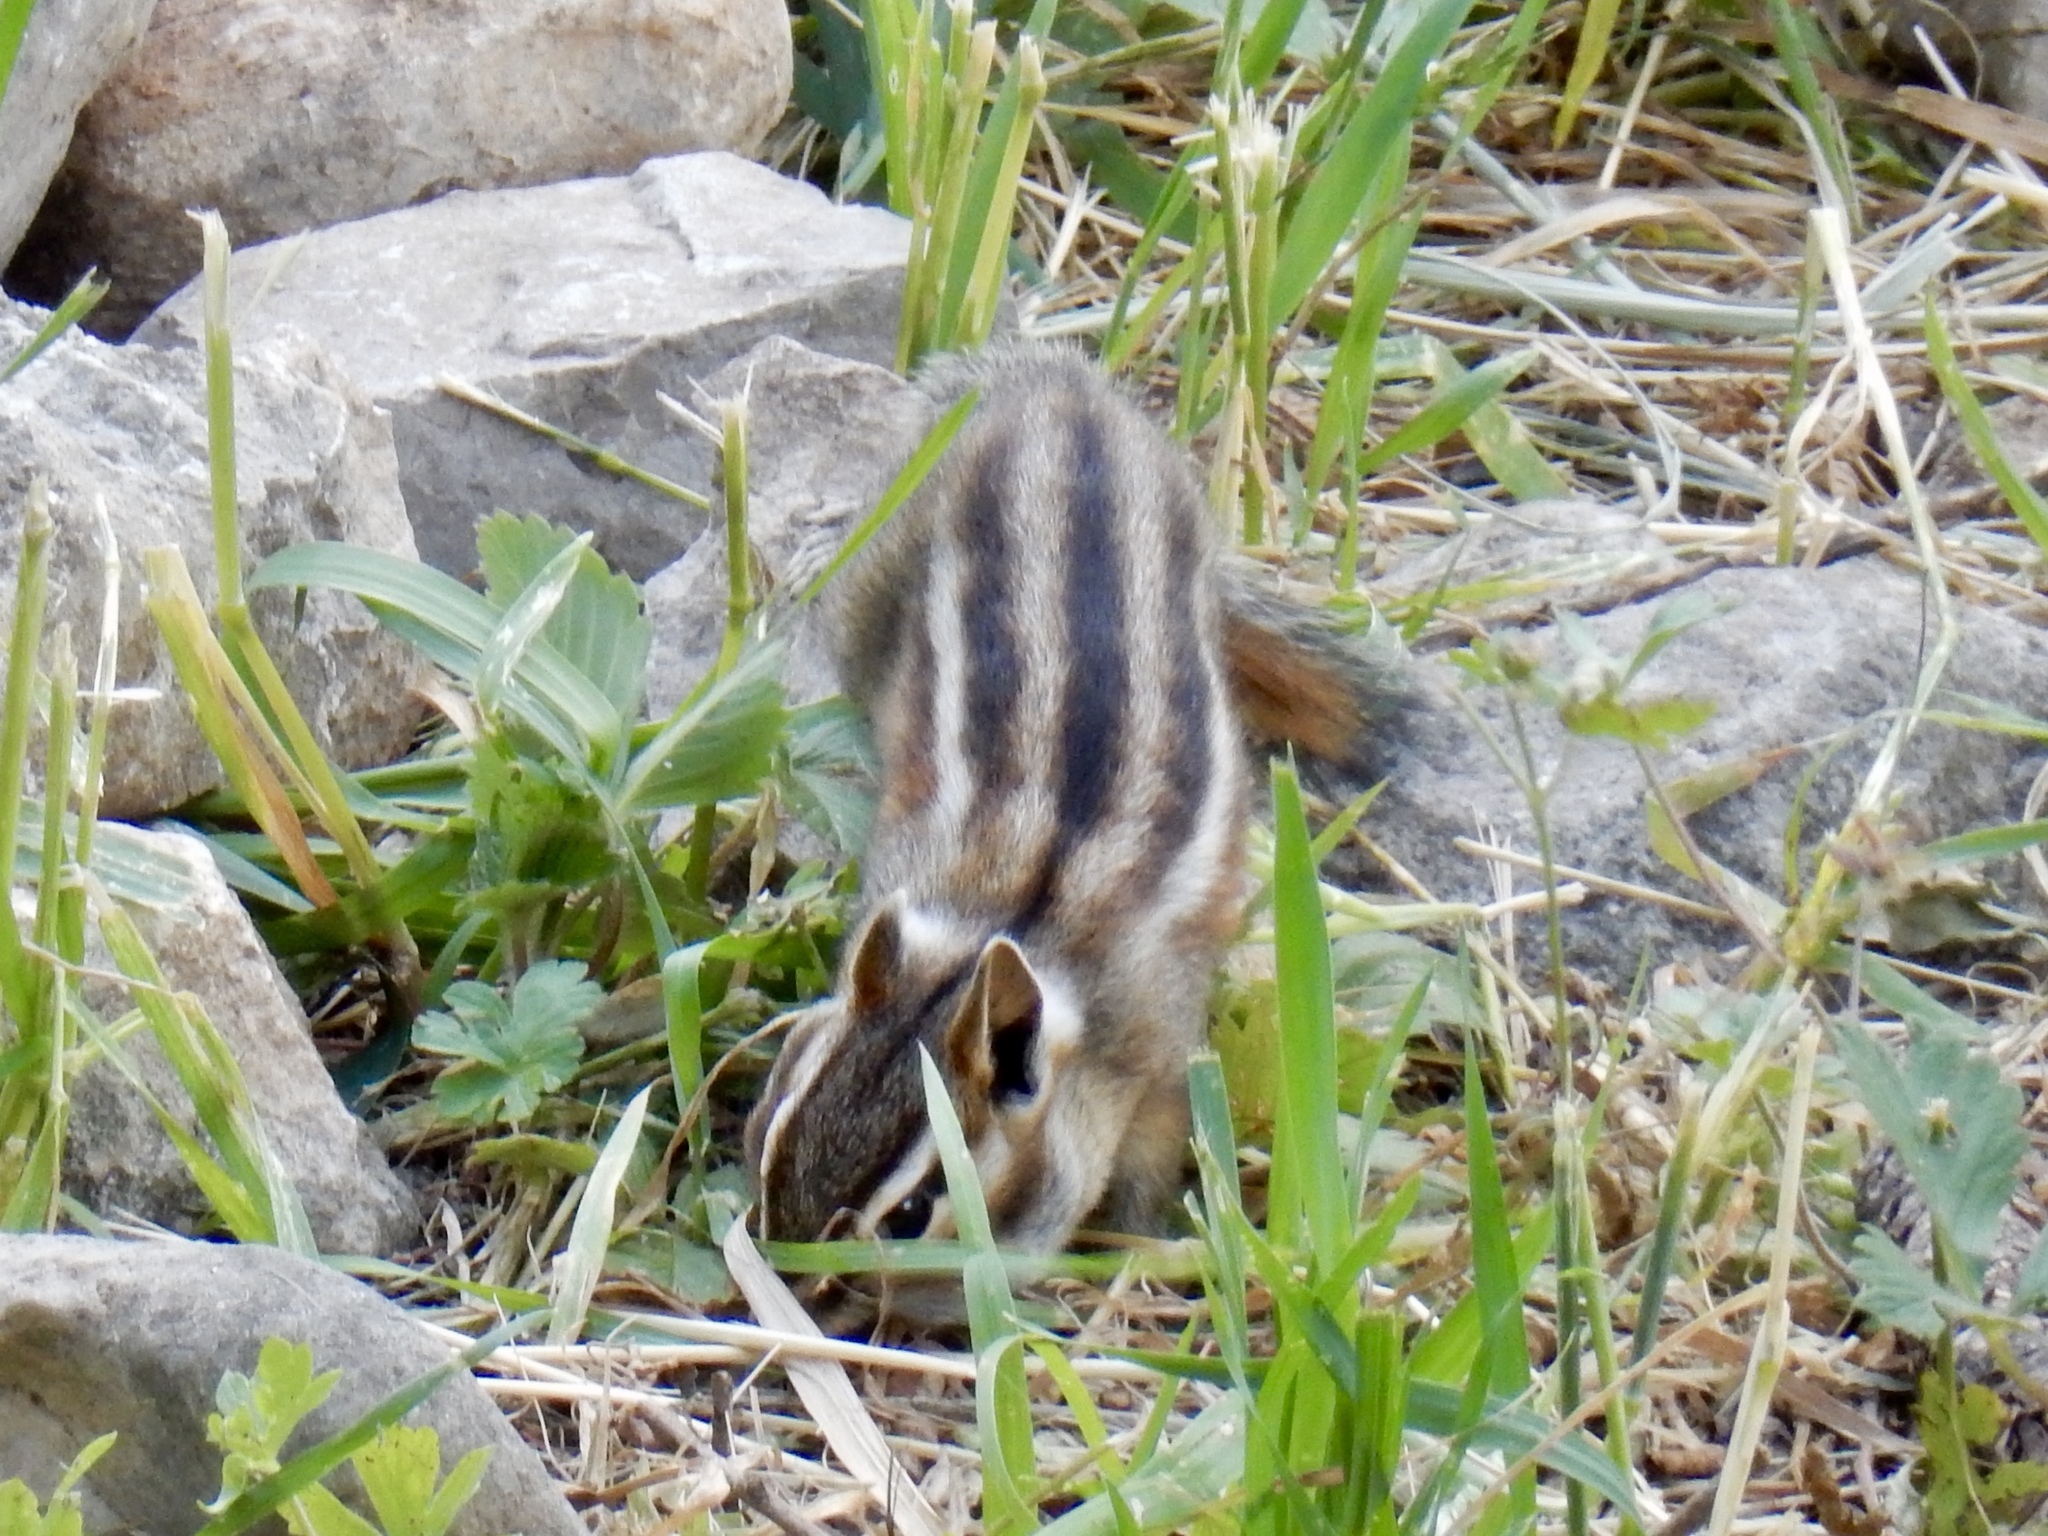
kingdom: Animalia
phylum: Chordata
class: Mammalia
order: Rodentia
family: Sciuridae
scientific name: Sciuridae
